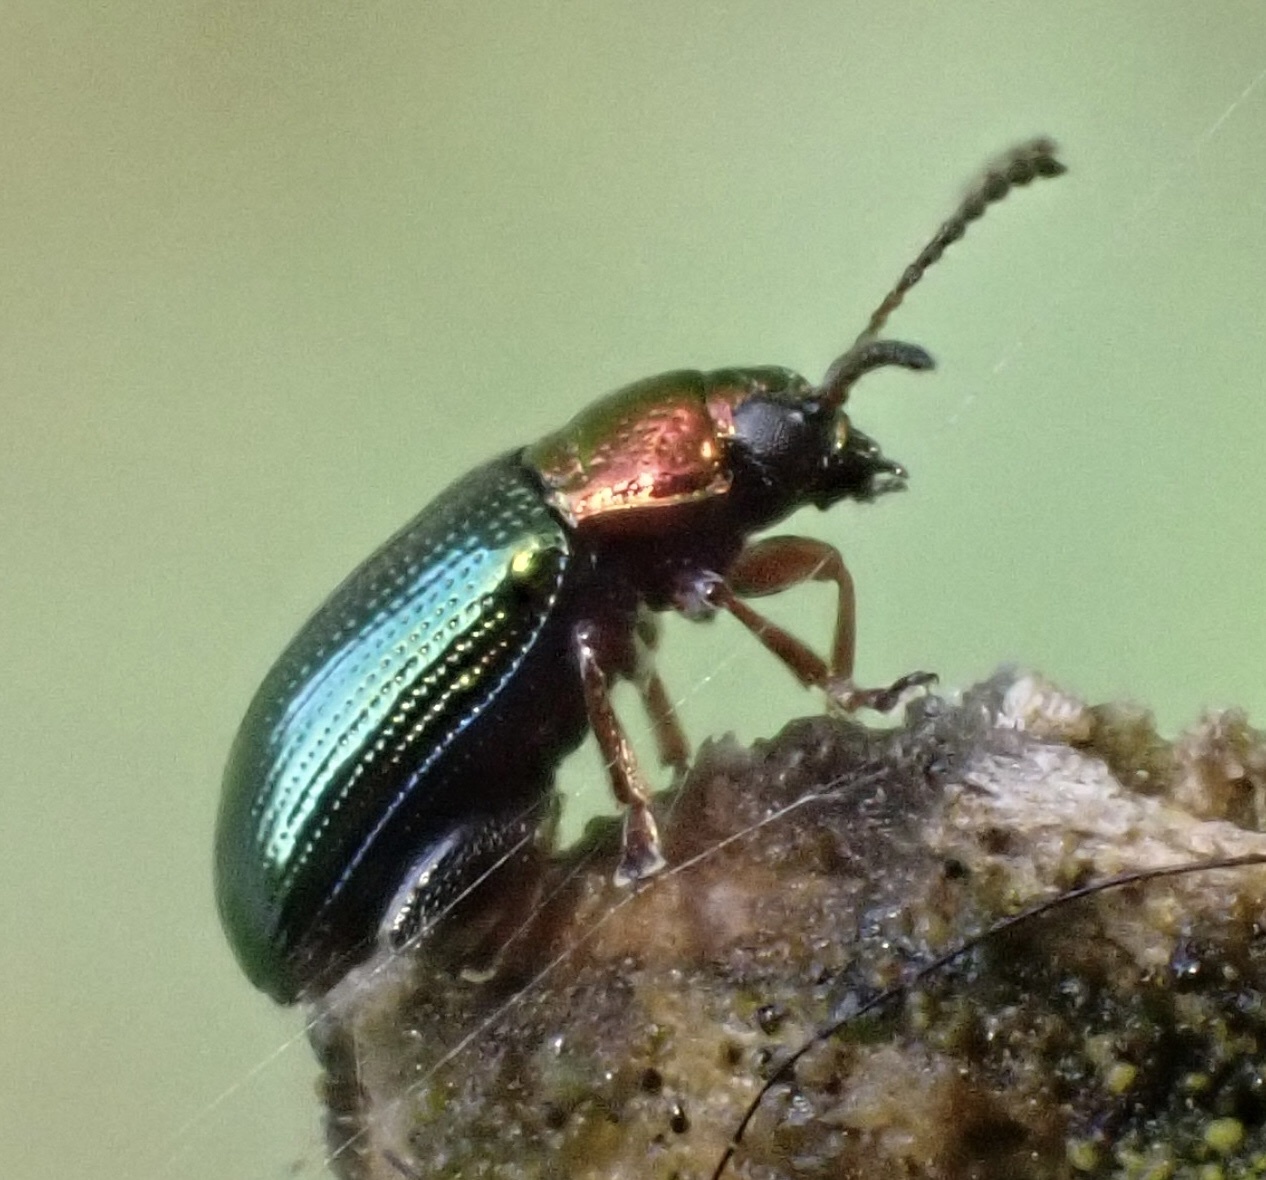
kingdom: Animalia
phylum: Arthropoda
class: Insecta
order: Coleoptera
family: Chrysomelidae
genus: Crepidodera
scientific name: Crepidodera aurata
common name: Willow flea beetle
